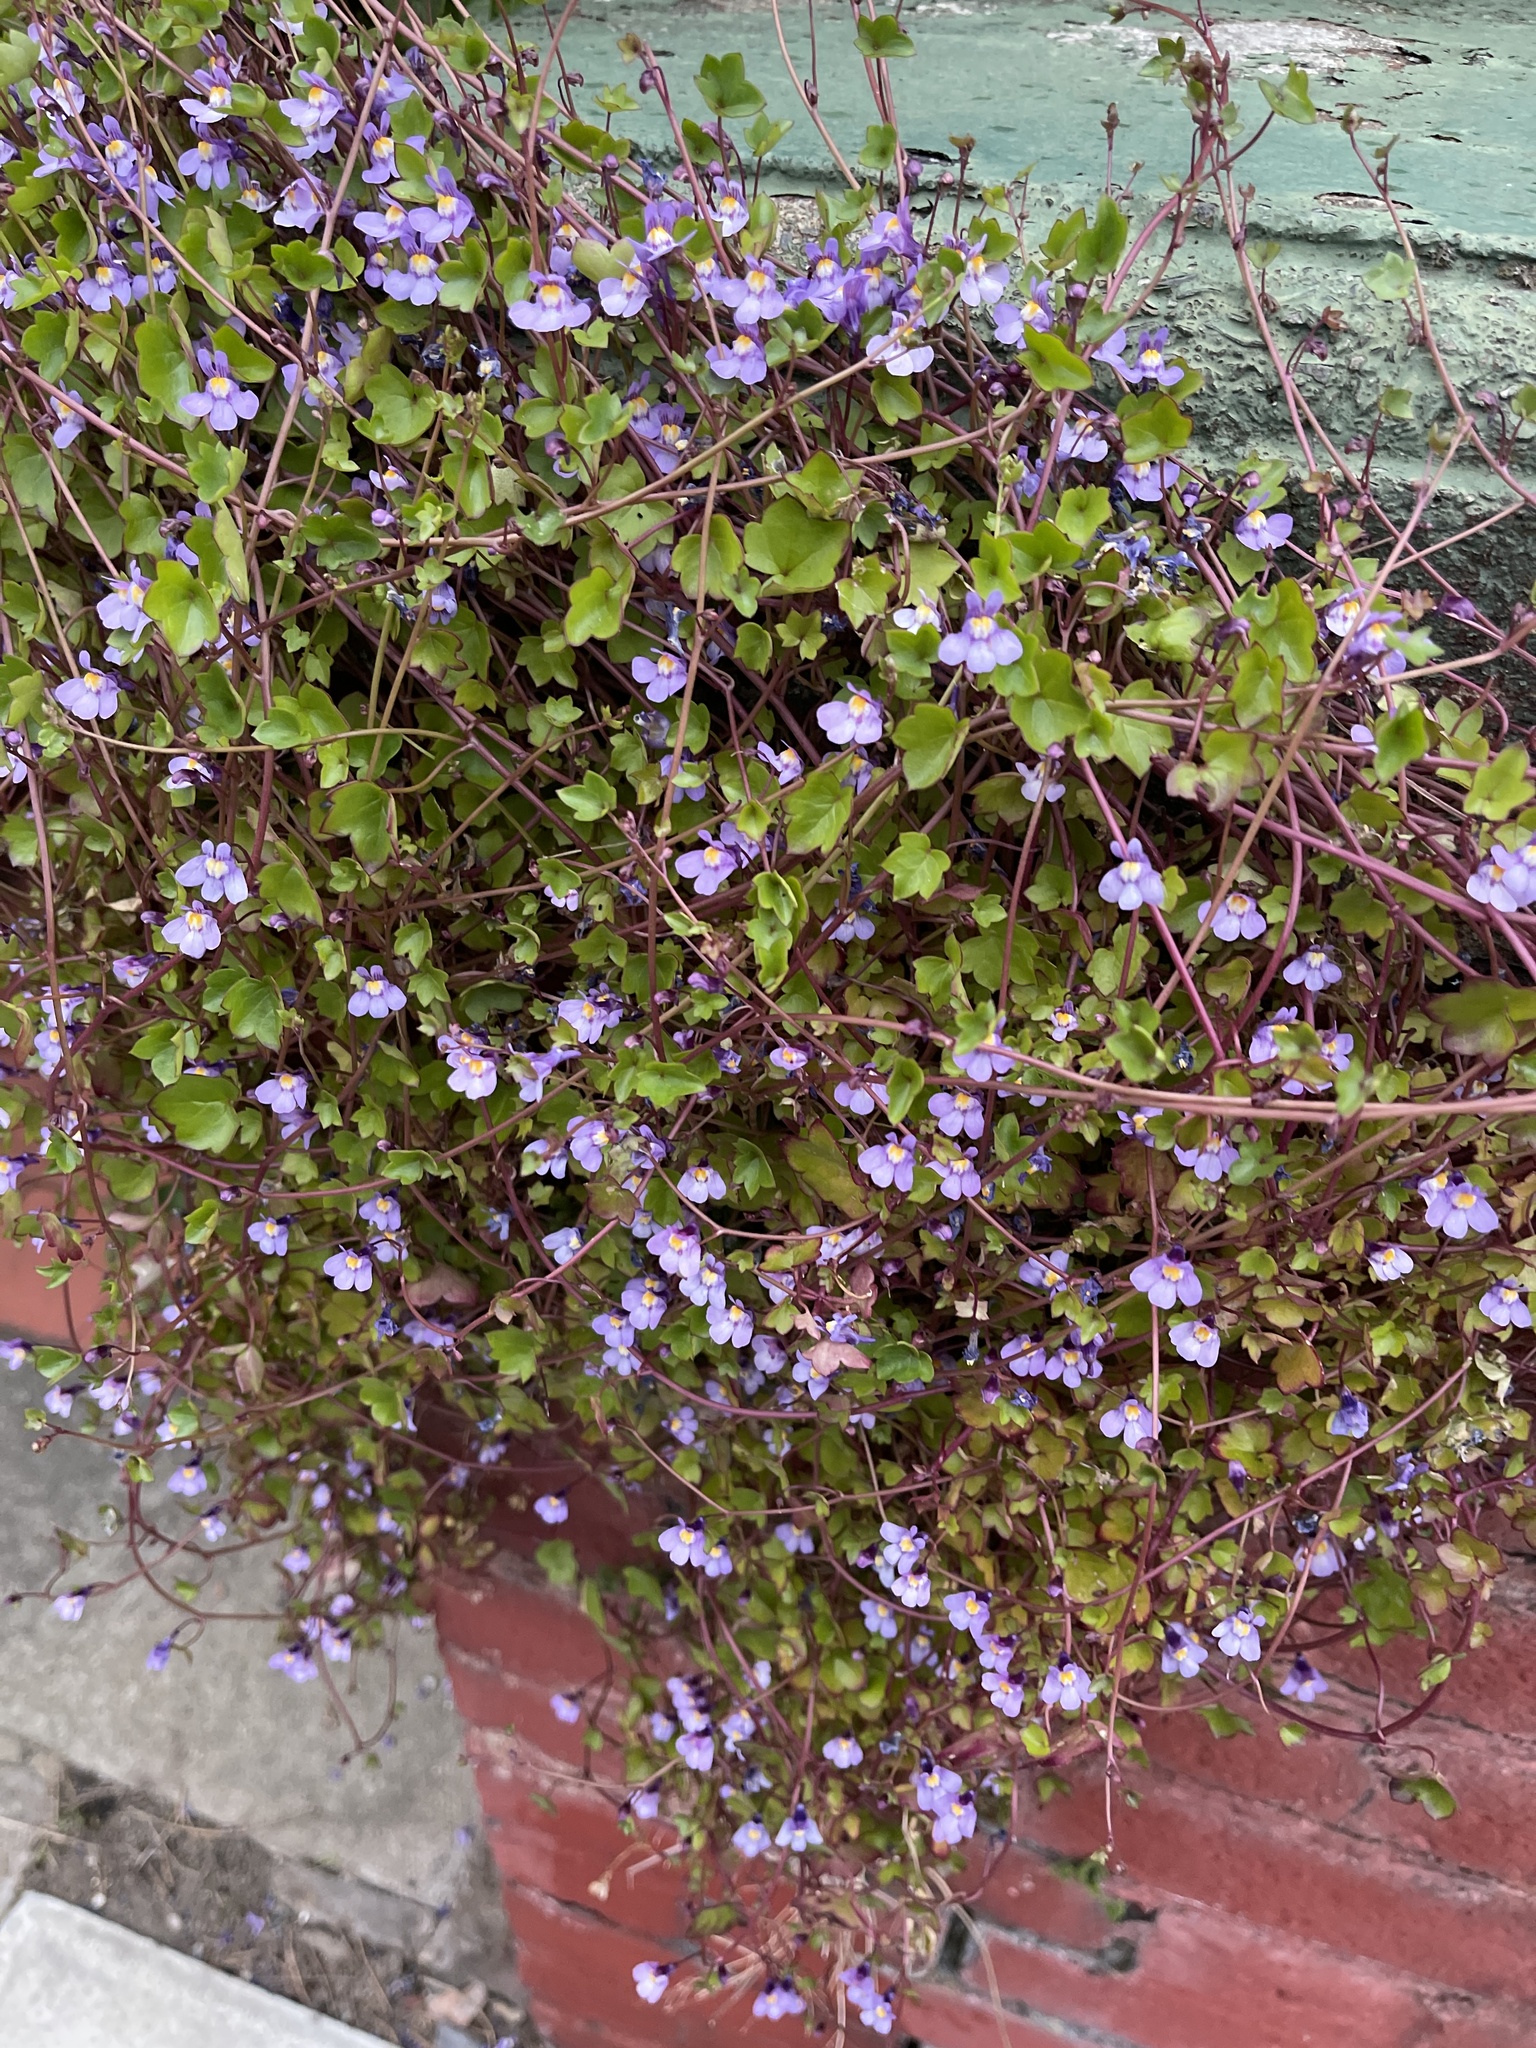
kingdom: Plantae
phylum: Tracheophyta
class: Magnoliopsida
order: Lamiales
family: Plantaginaceae
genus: Cymbalaria
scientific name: Cymbalaria muralis
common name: Ivy-leaved toadflax
